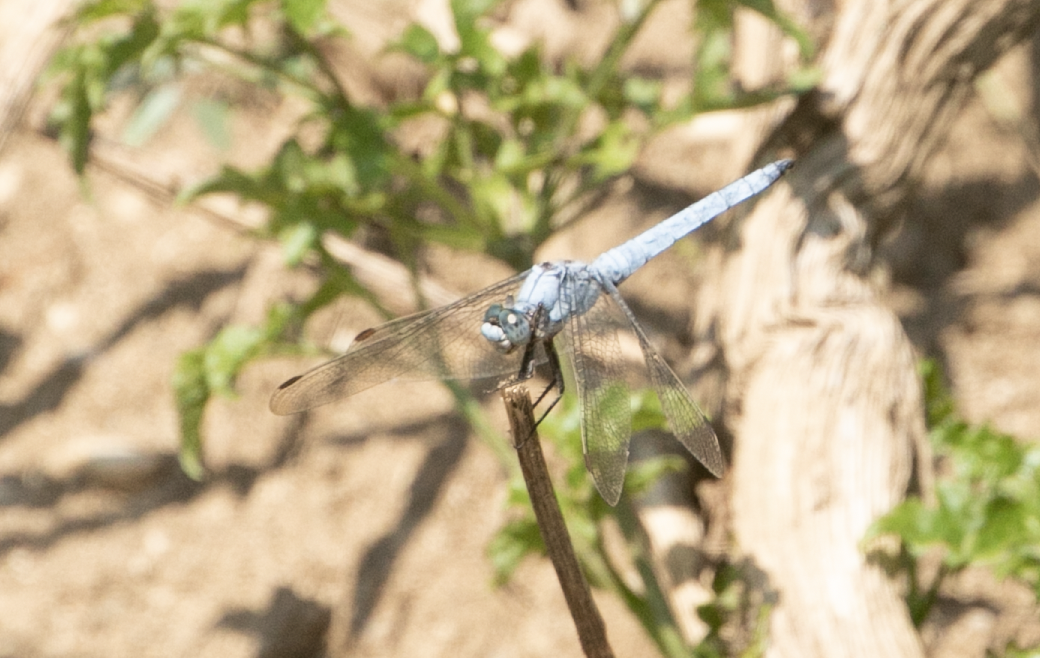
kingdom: Animalia
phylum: Arthropoda
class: Insecta
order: Odonata
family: Libellulidae
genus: Orthetrum
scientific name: Orthetrum brunneum
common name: Southern skimmer
